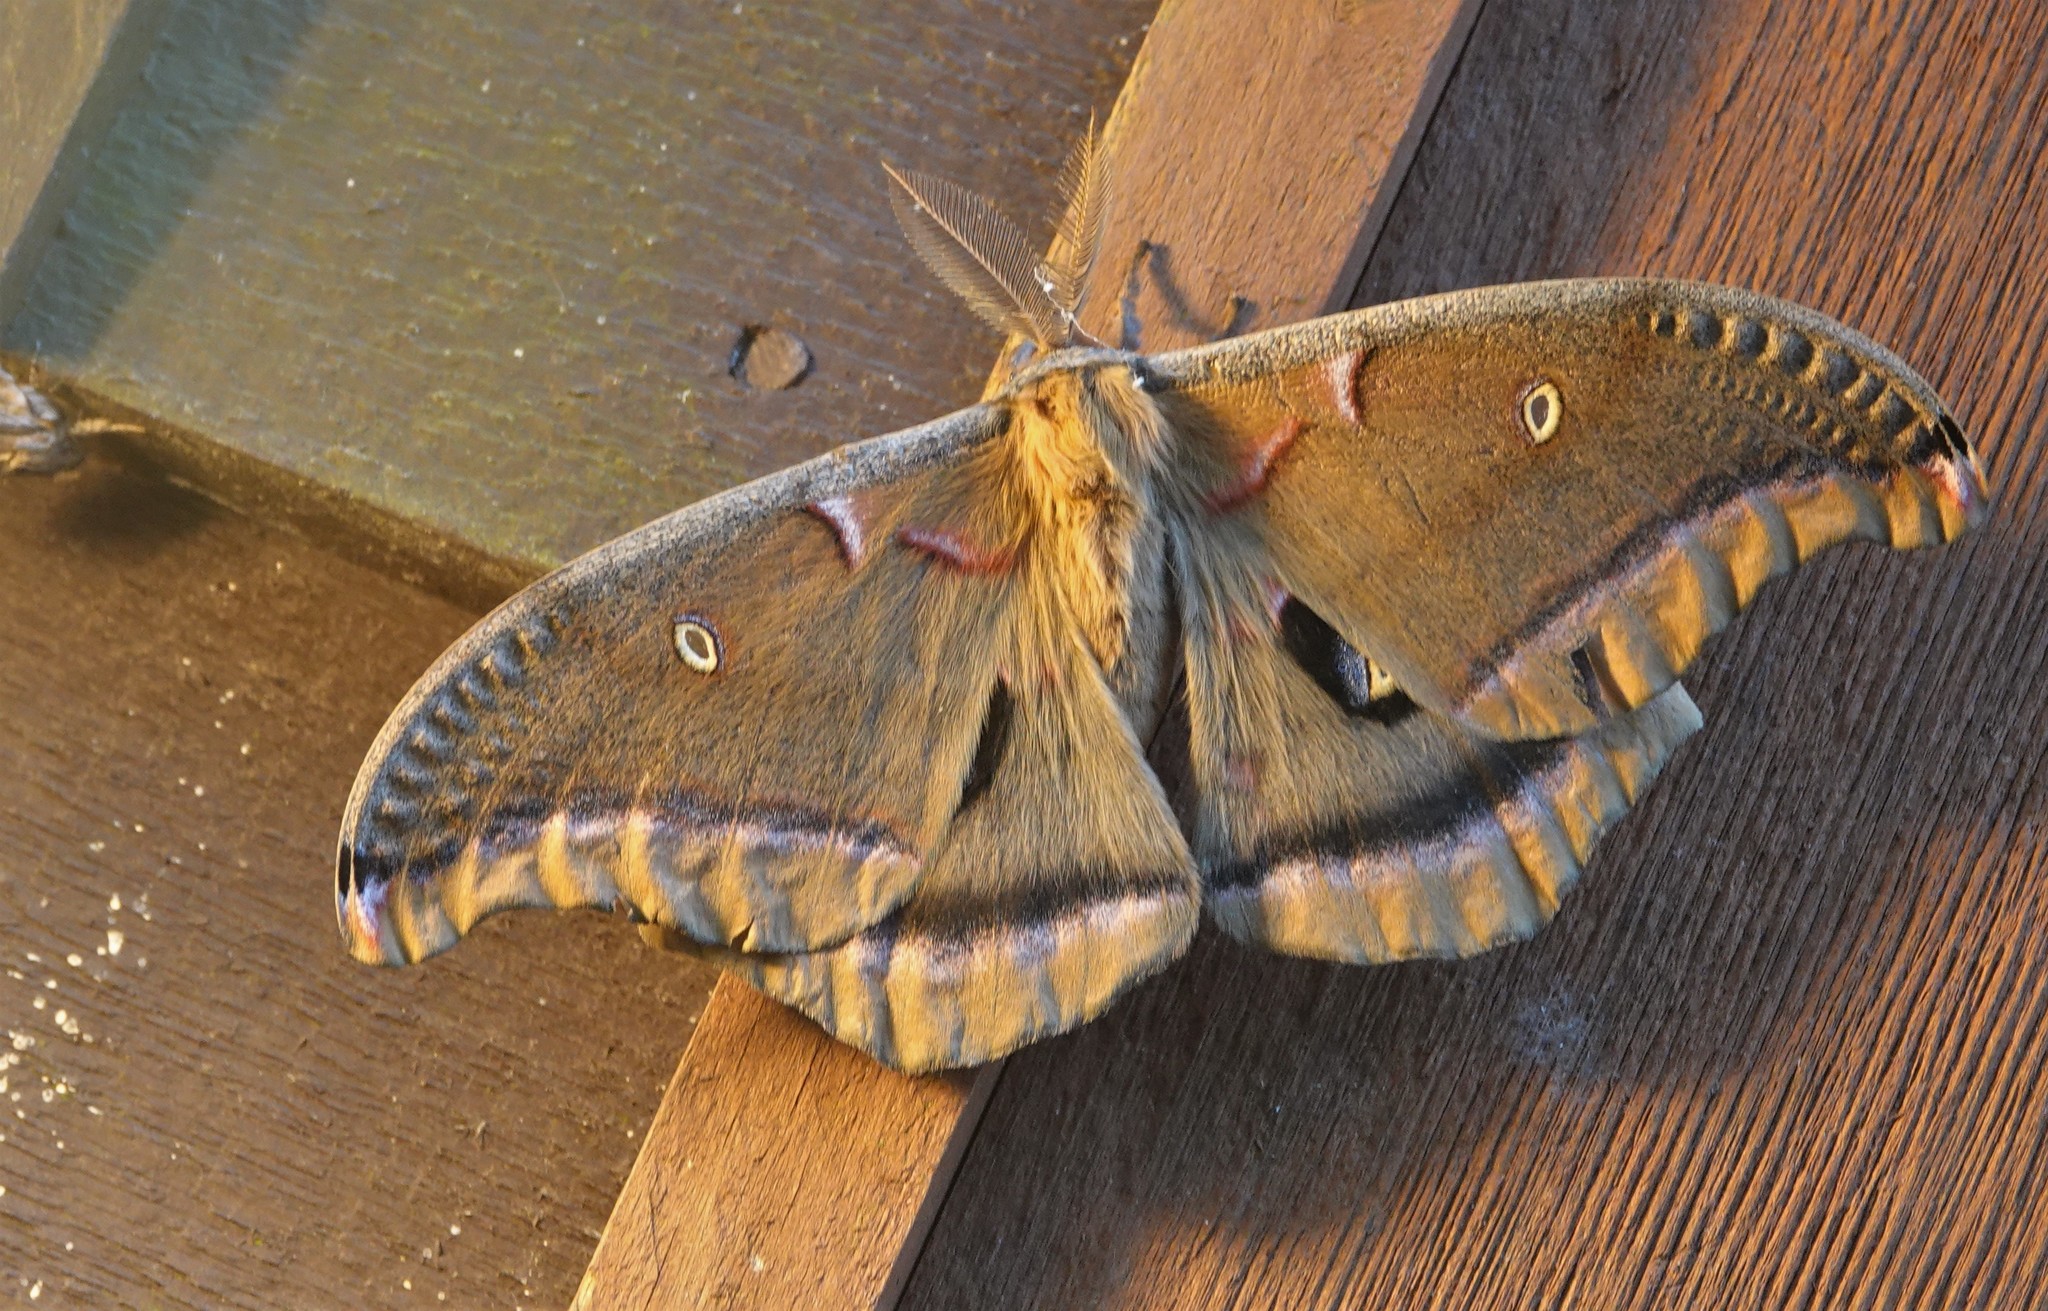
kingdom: Animalia
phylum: Arthropoda
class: Insecta
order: Lepidoptera
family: Saturniidae
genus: Antheraea
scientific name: Antheraea polyphemus
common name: Polyphemus moth
